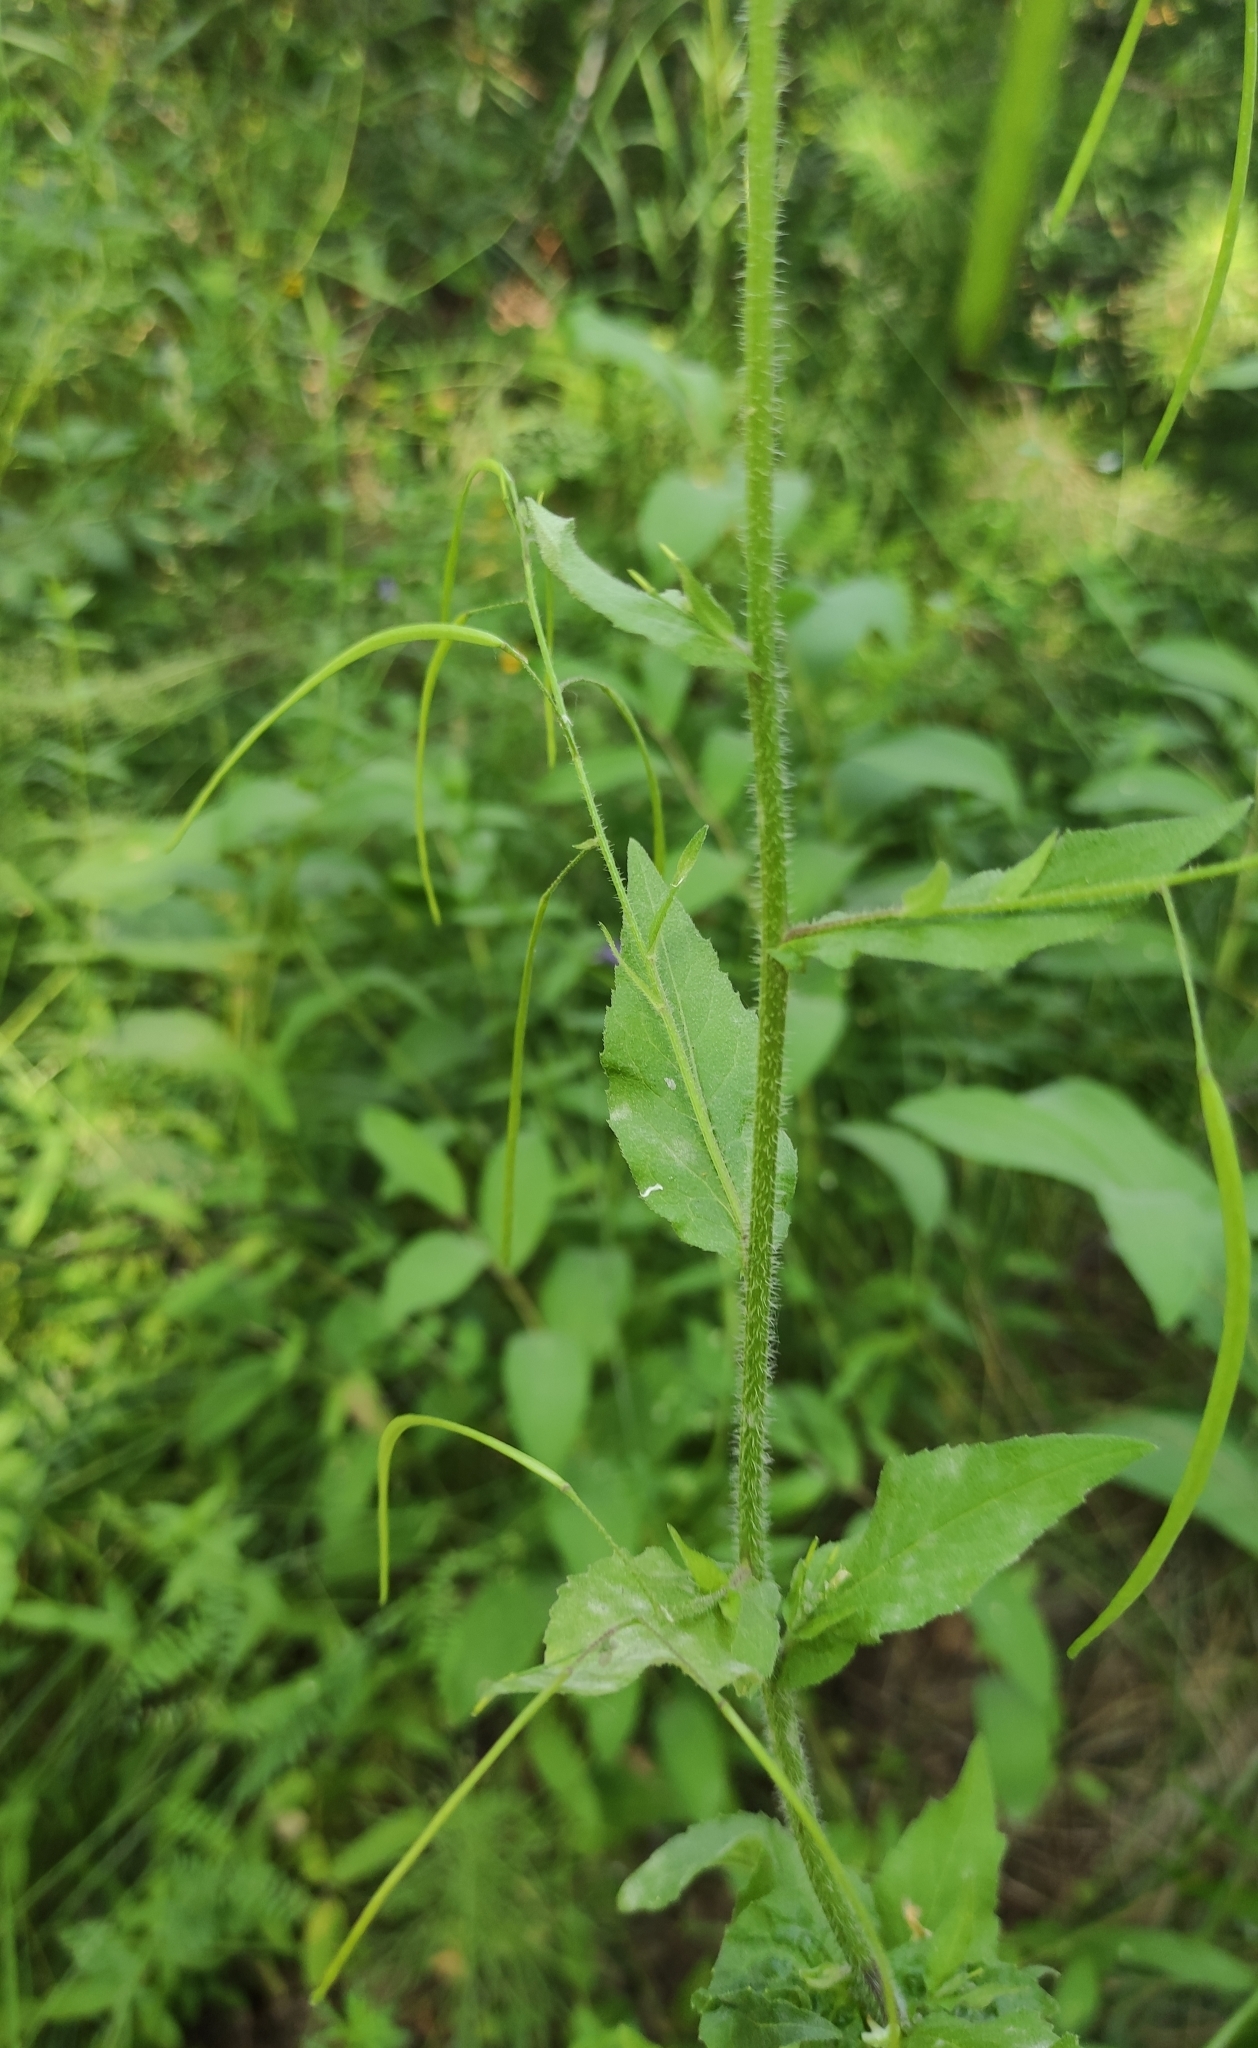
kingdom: Plantae
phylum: Tracheophyta
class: Magnoliopsida
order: Brassicales
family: Brassicaceae
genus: Catolobus
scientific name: Catolobus pendulus
